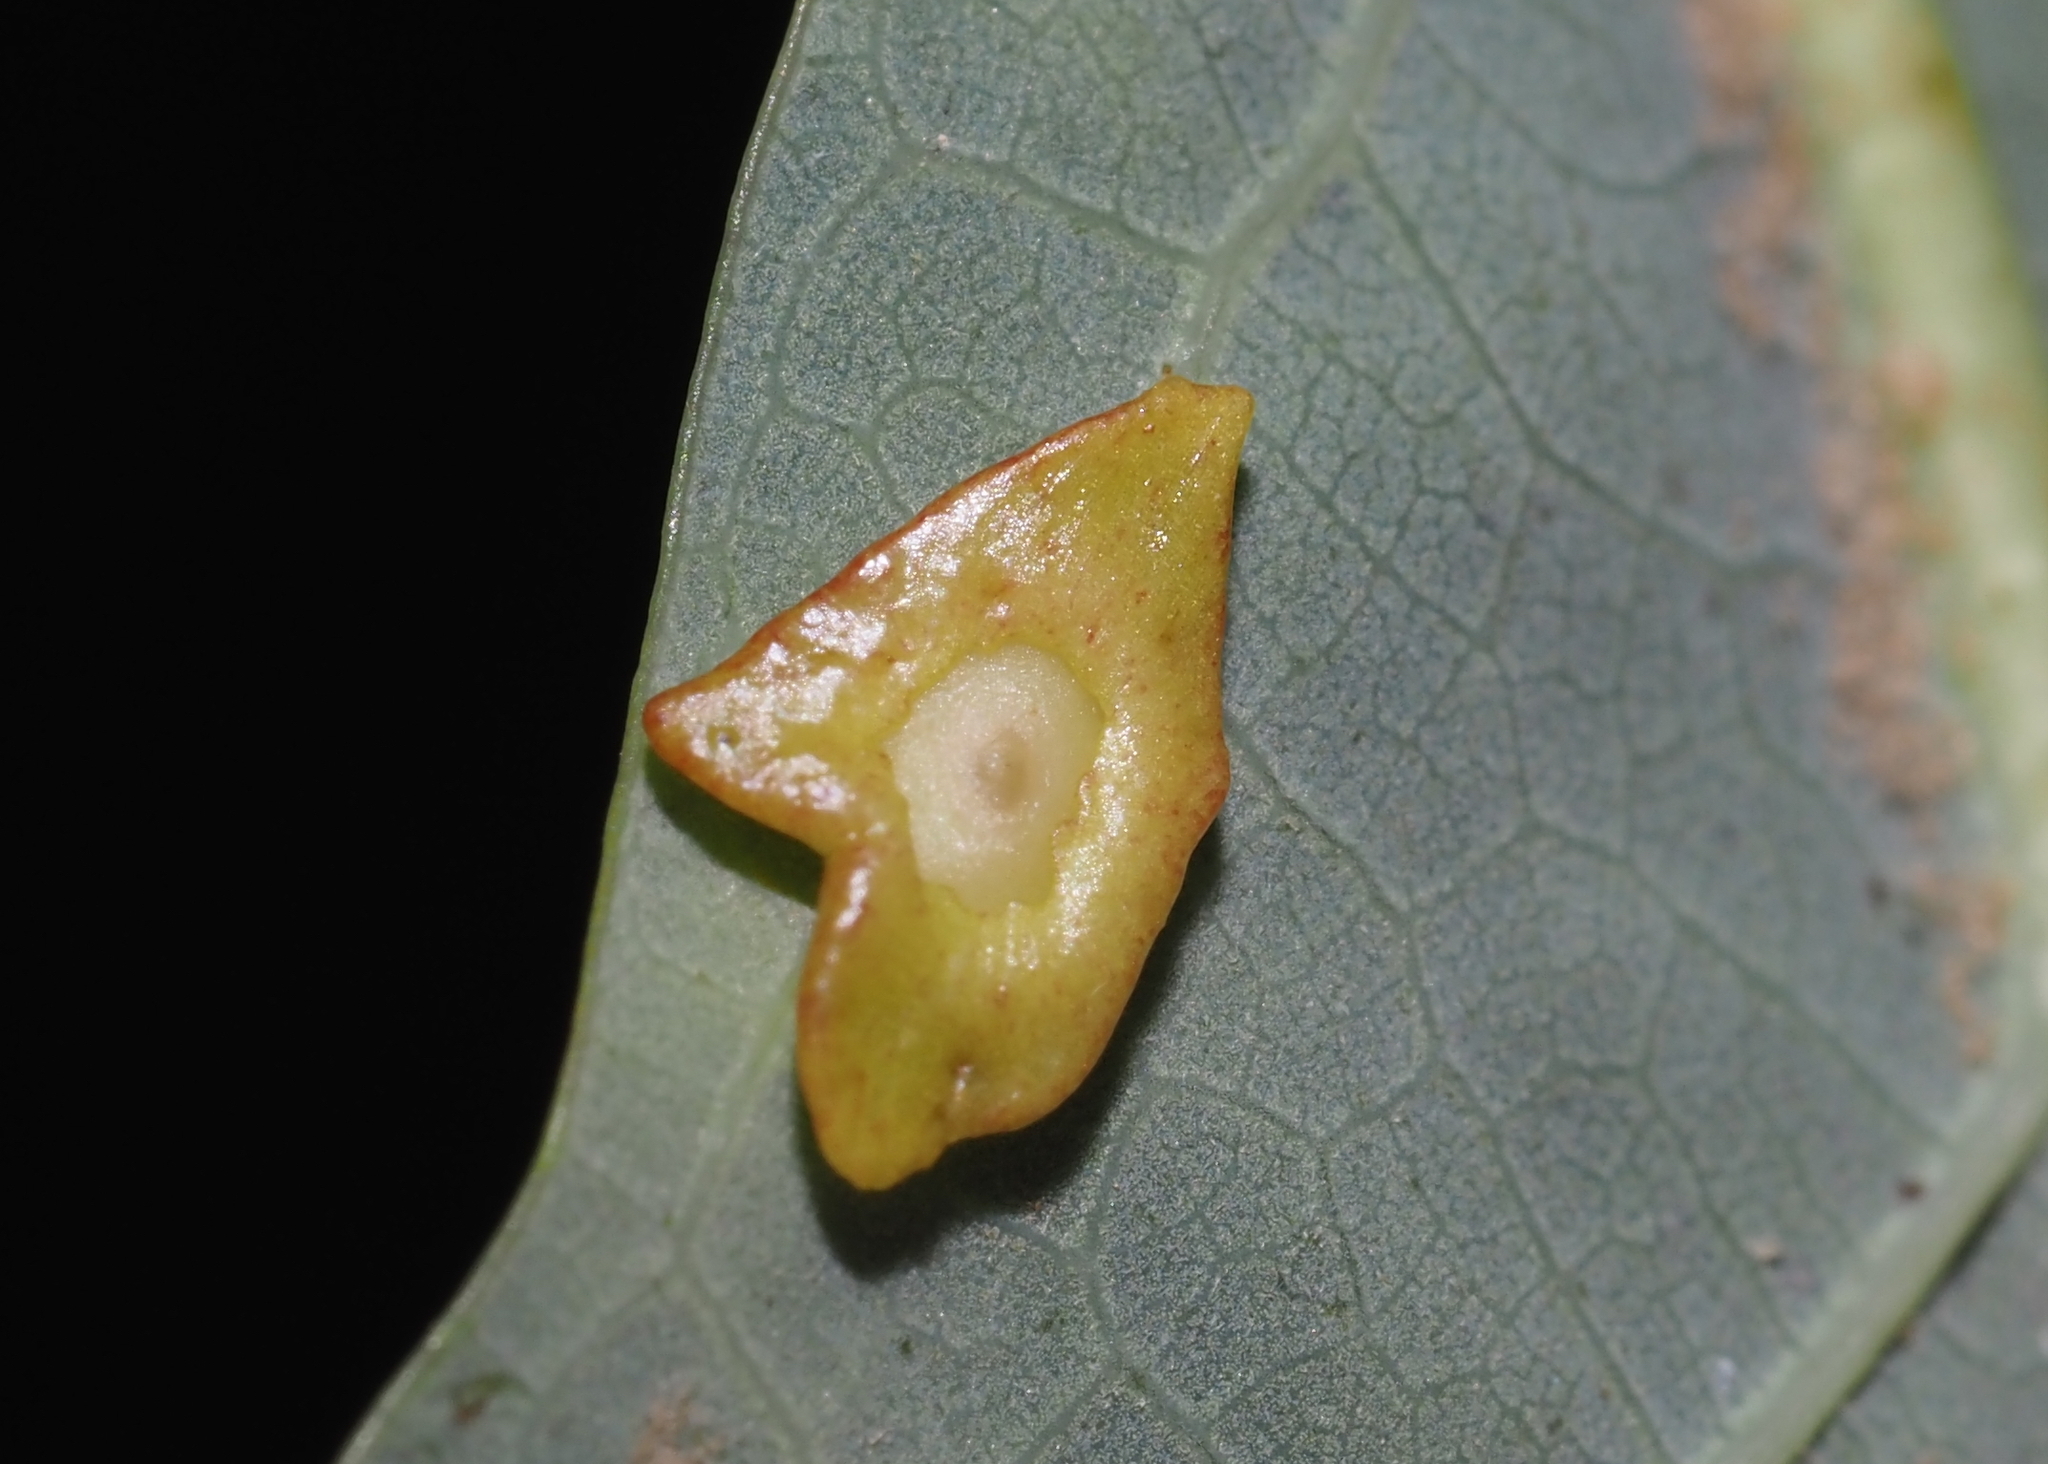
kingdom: Animalia
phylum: Arthropoda
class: Insecta
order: Hymenoptera
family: Cynipidae
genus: Phylloteras
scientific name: Phylloteras
